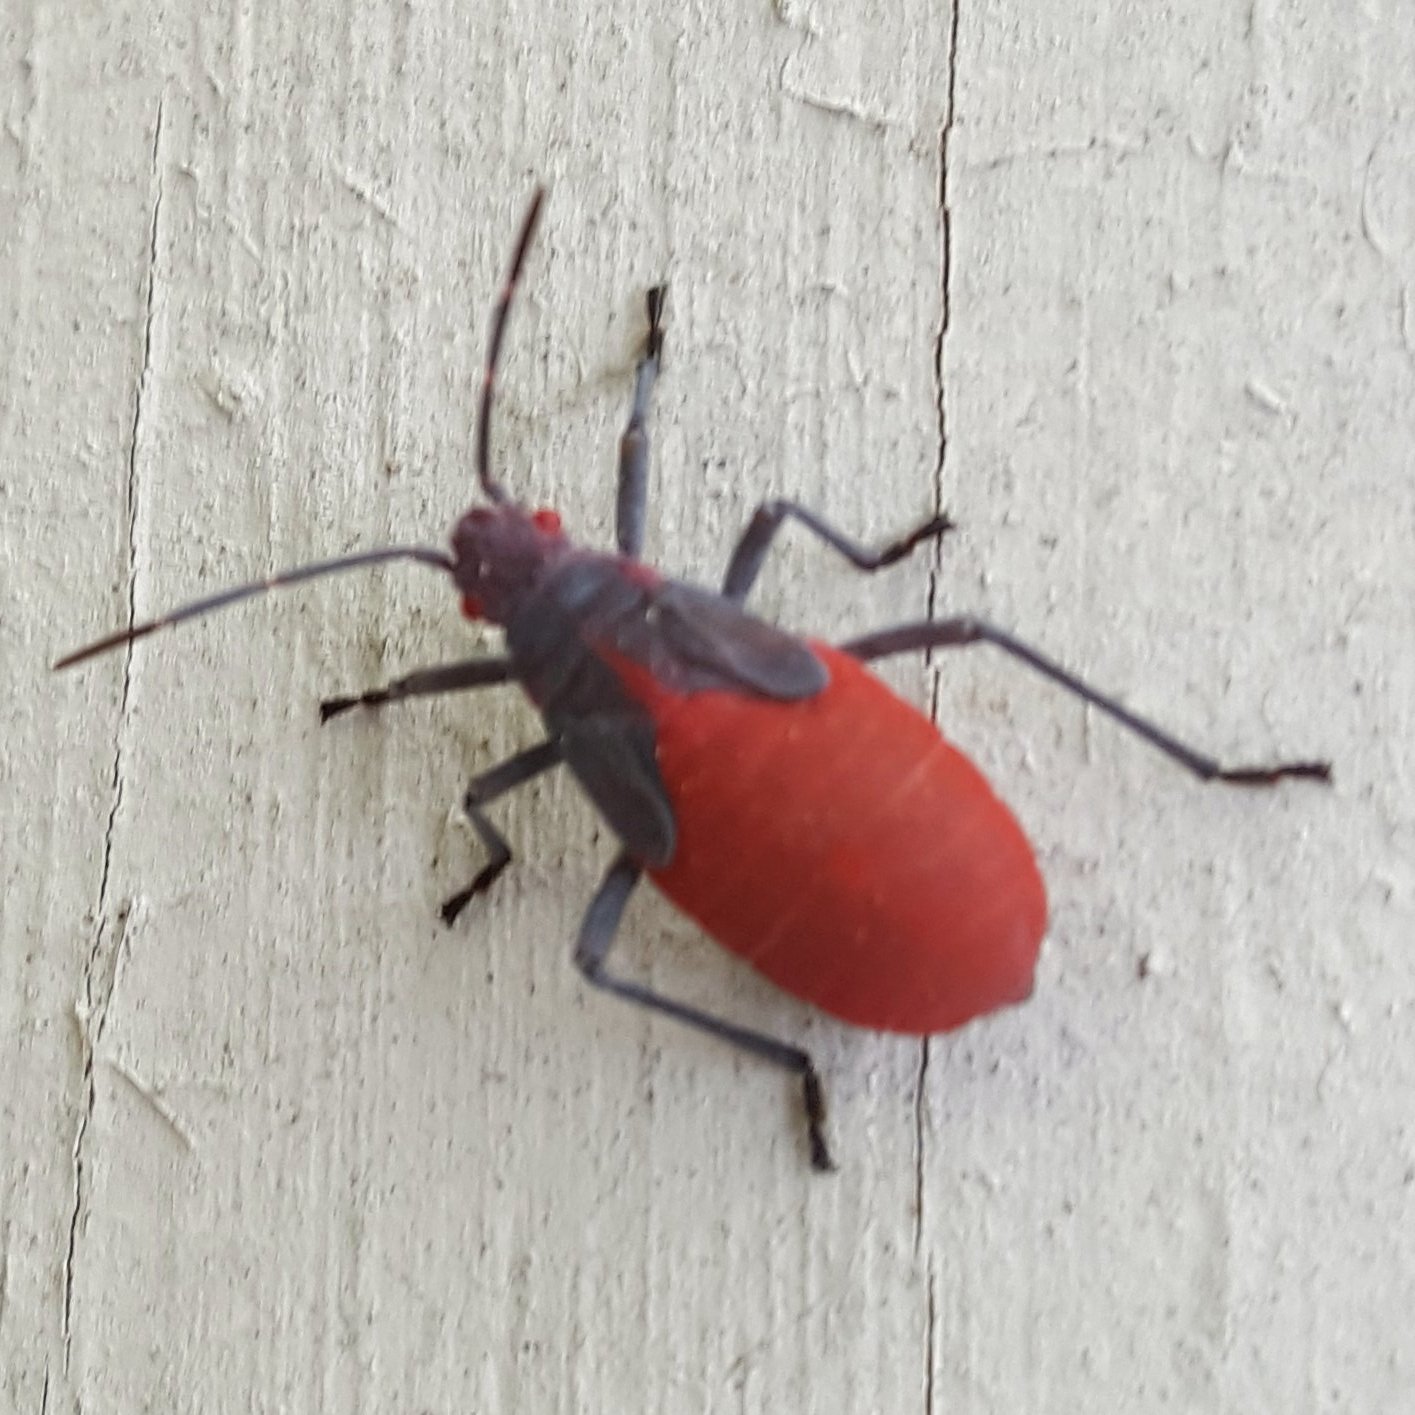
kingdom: Animalia
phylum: Arthropoda
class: Insecta
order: Hemiptera
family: Rhopalidae
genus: Jadera
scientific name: Jadera haematoloma
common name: Red-shouldered bug
